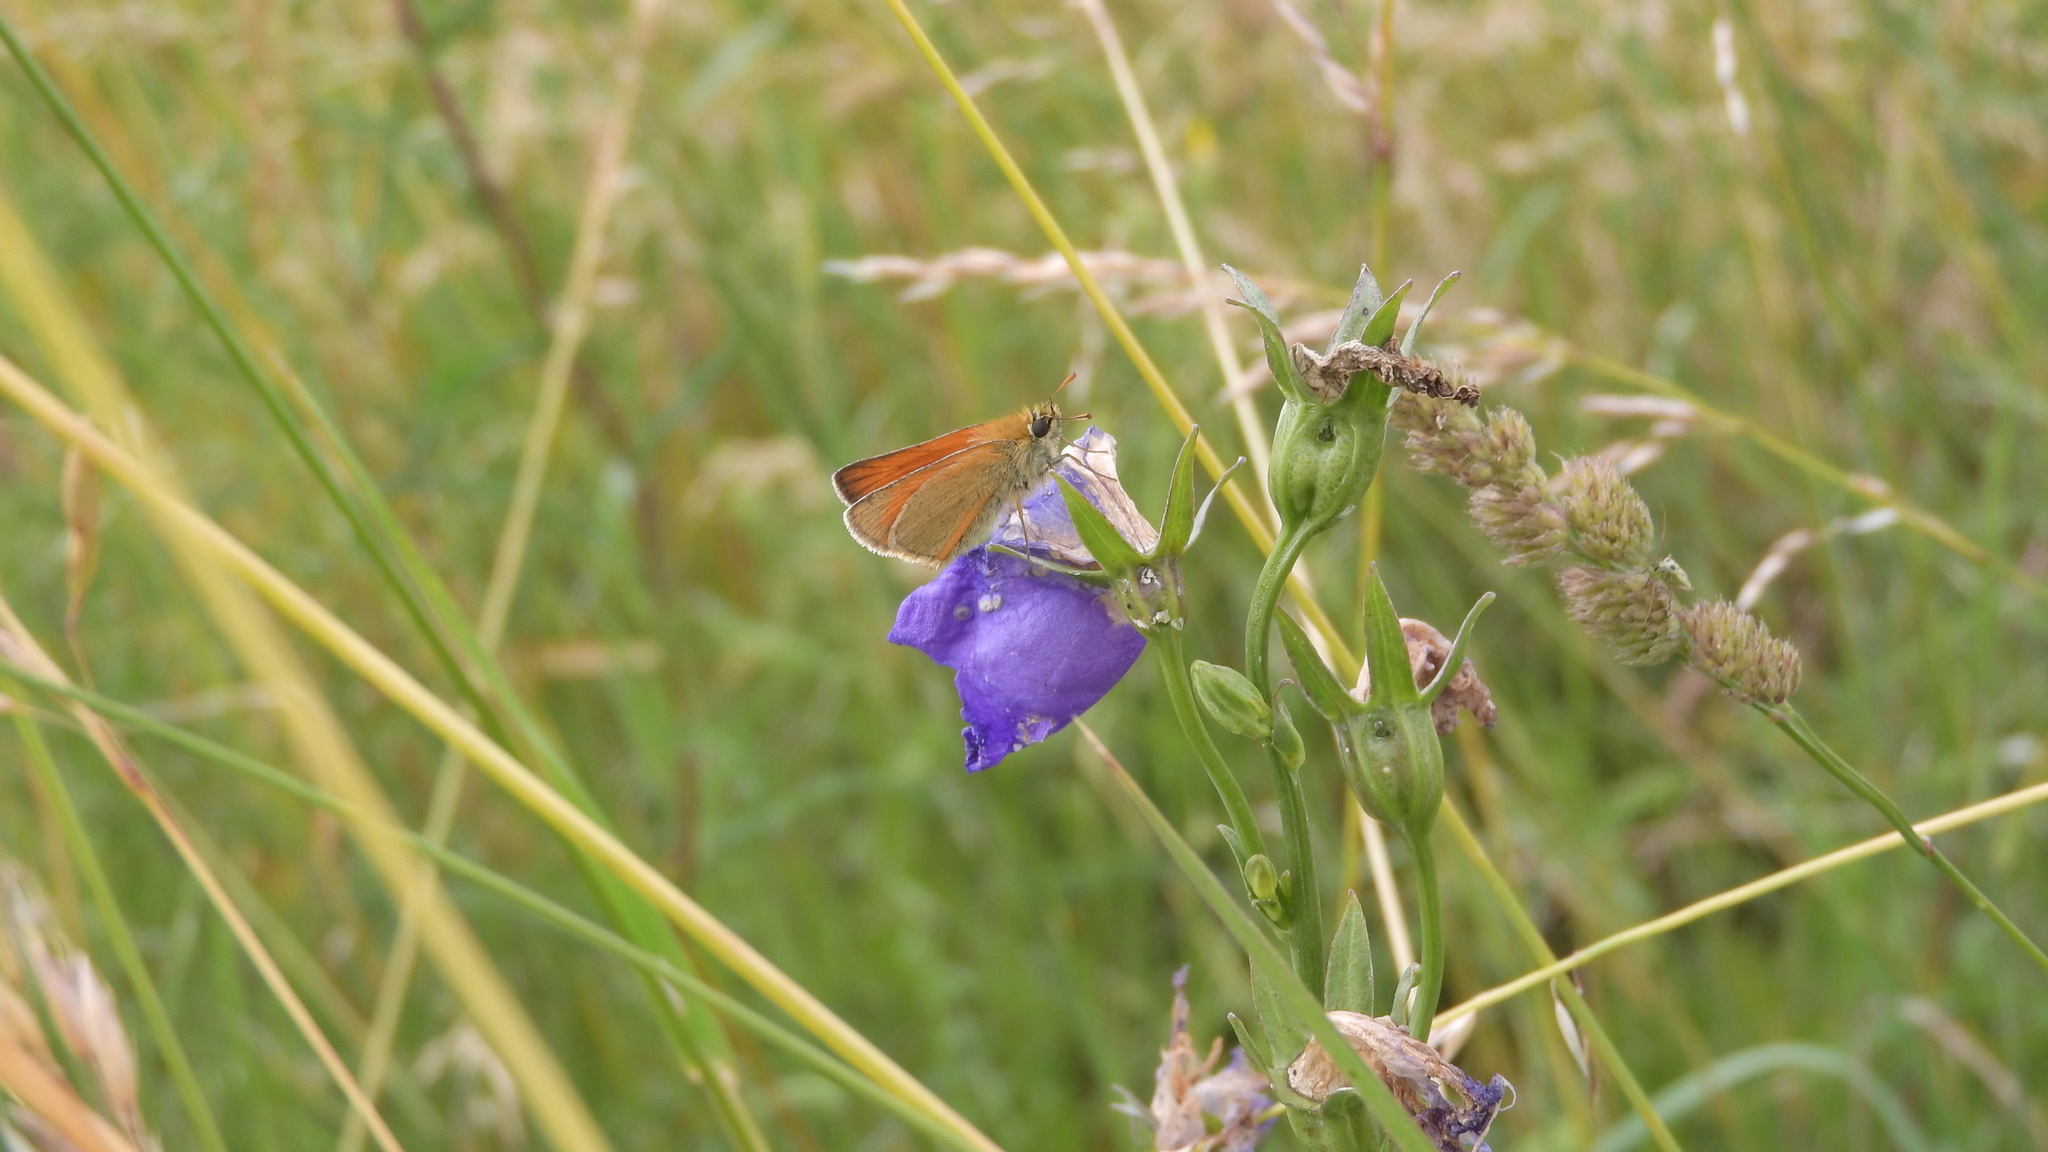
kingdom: Animalia
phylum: Arthropoda
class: Insecta
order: Lepidoptera
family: Hesperiidae
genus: Thymelicus
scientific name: Thymelicus sylvestris
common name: Small skipper
